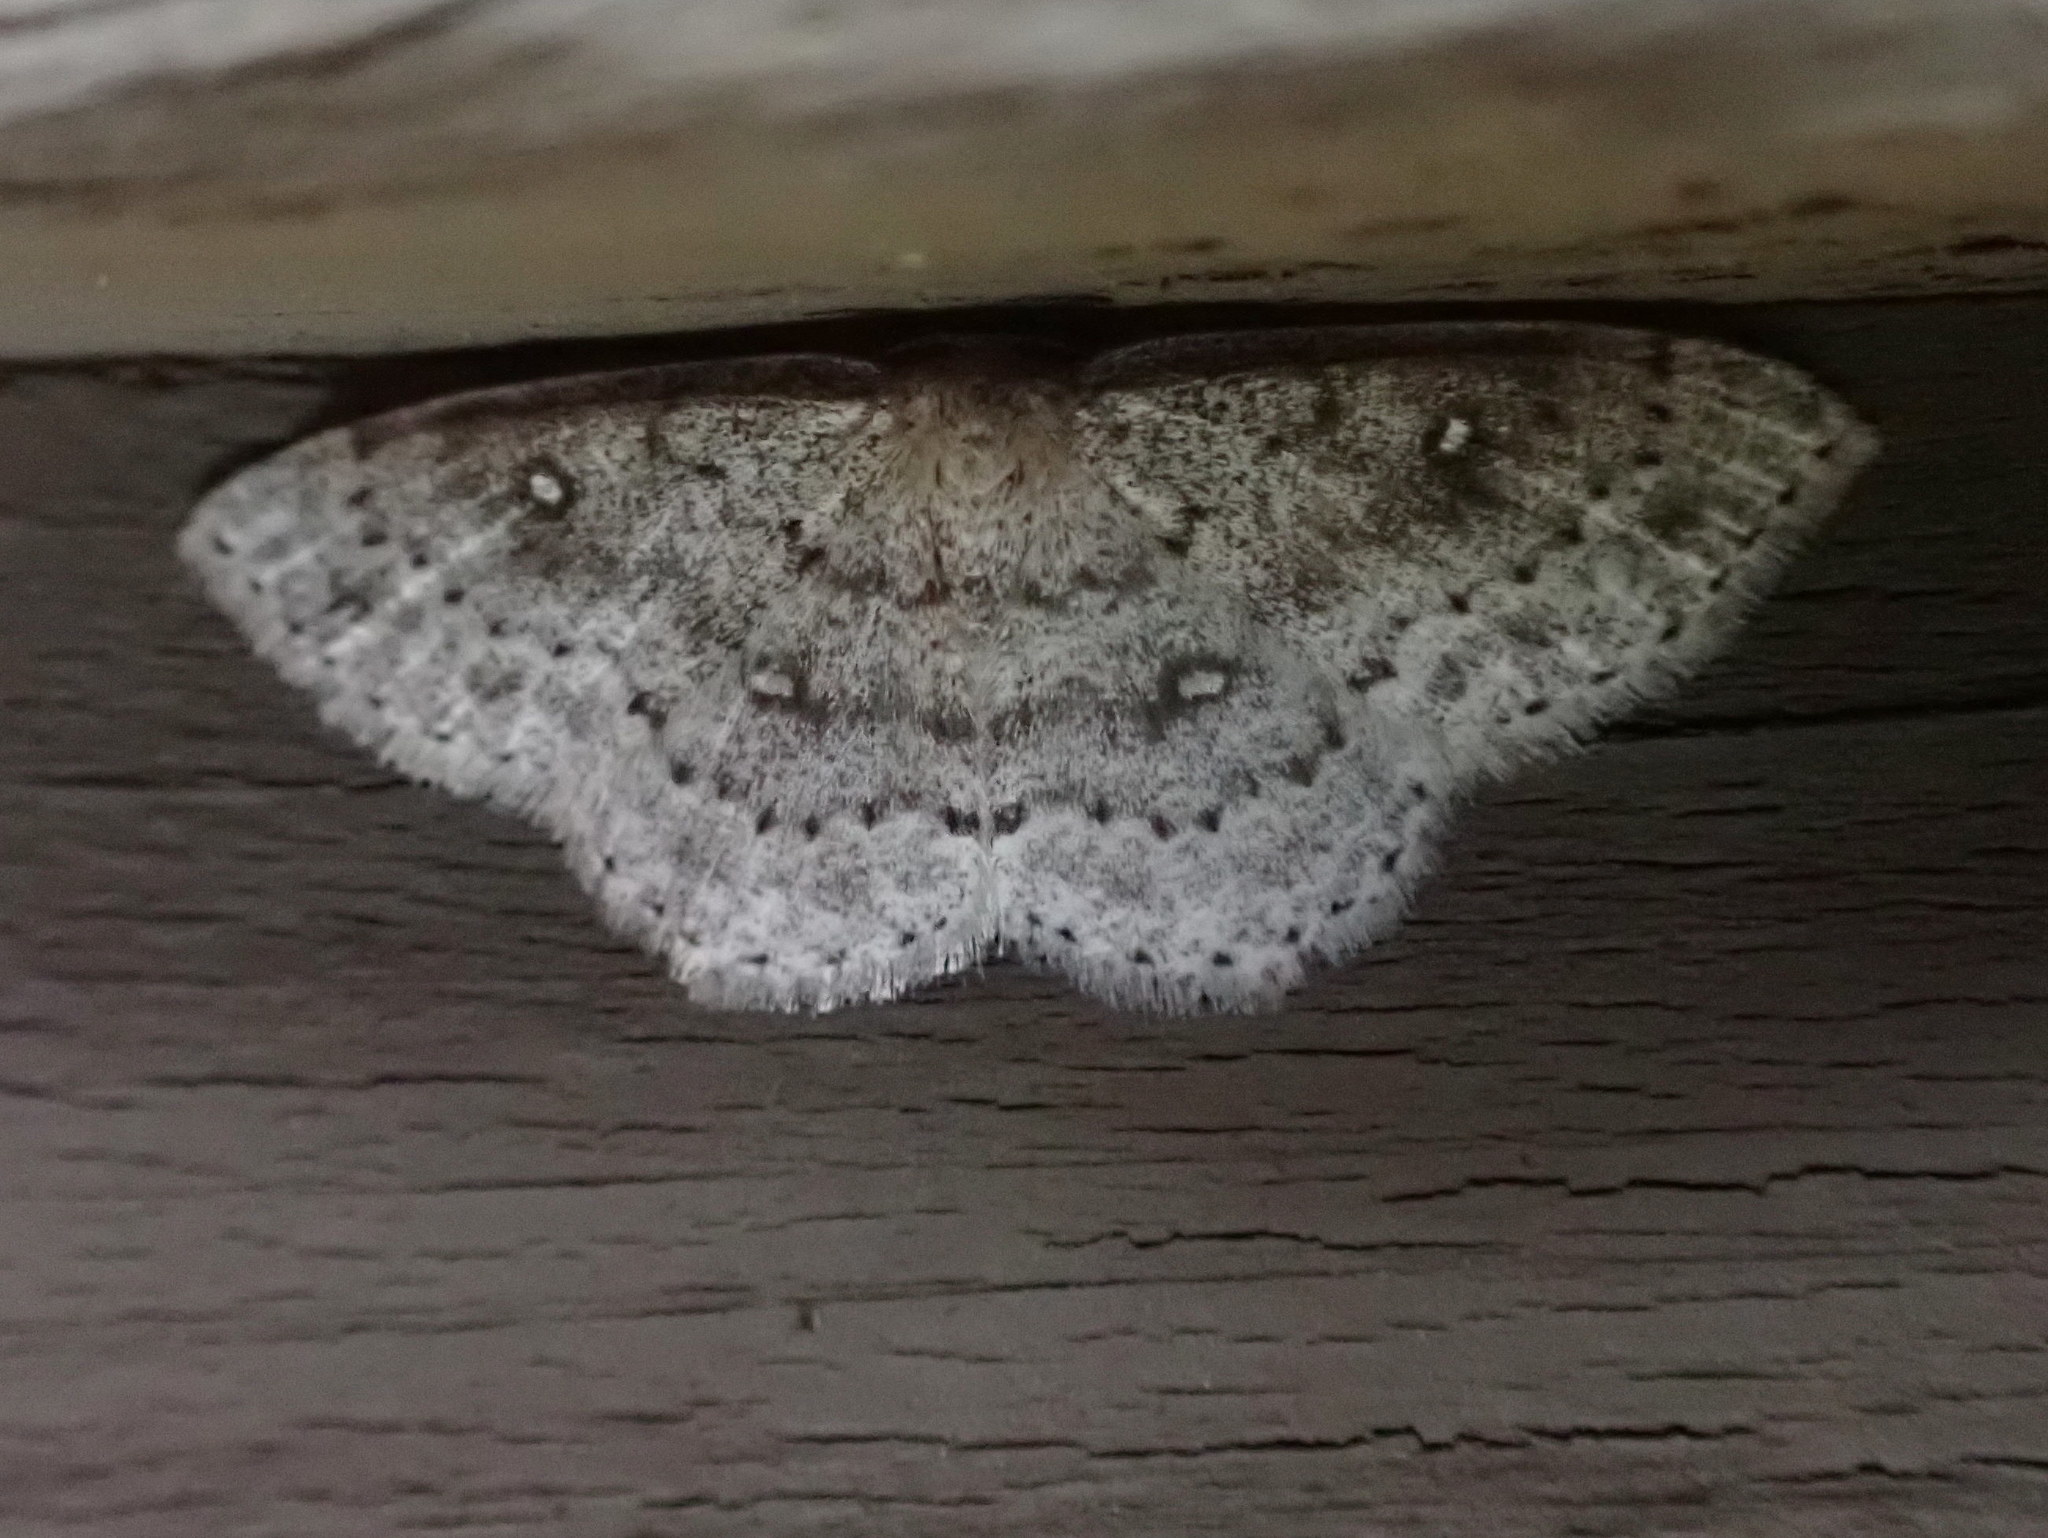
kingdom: Animalia
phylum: Arthropoda
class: Insecta
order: Lepidoptera
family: Geometridae
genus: Cyclophora
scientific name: Cyclophora pendulinaria
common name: Sweet fern geometer
